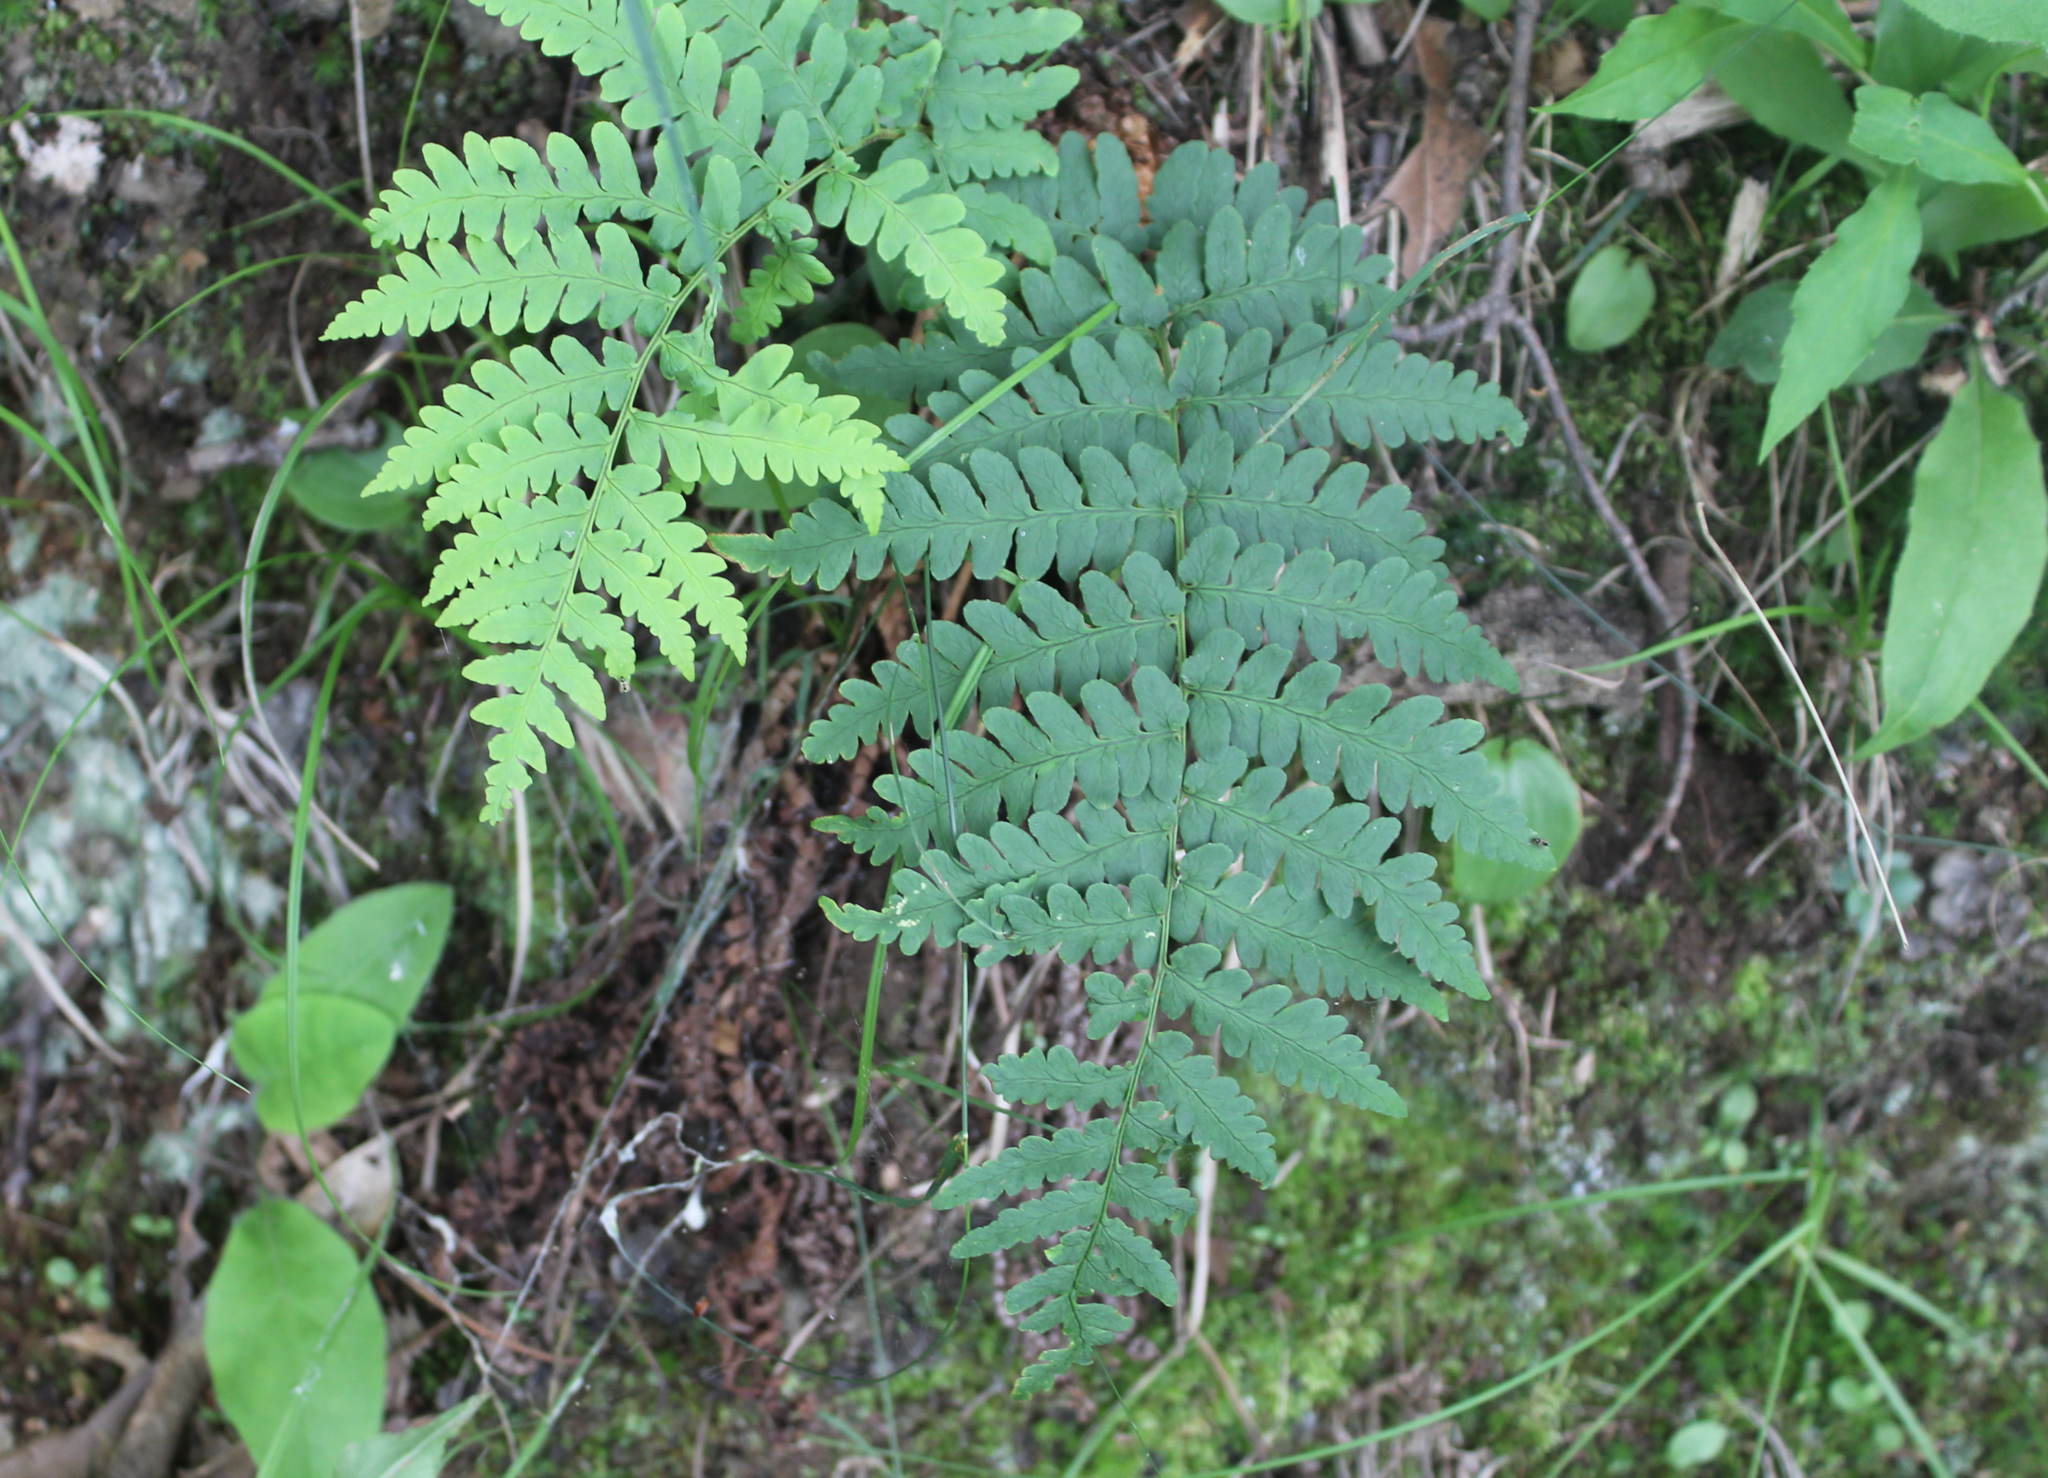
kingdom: Plantae
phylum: Tracheophyta
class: Polypodiopsida
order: Polypodiales
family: Dryopteridaceae
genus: Dryopteris
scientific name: Dryopteris marginalis
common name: Marginal wood fern
